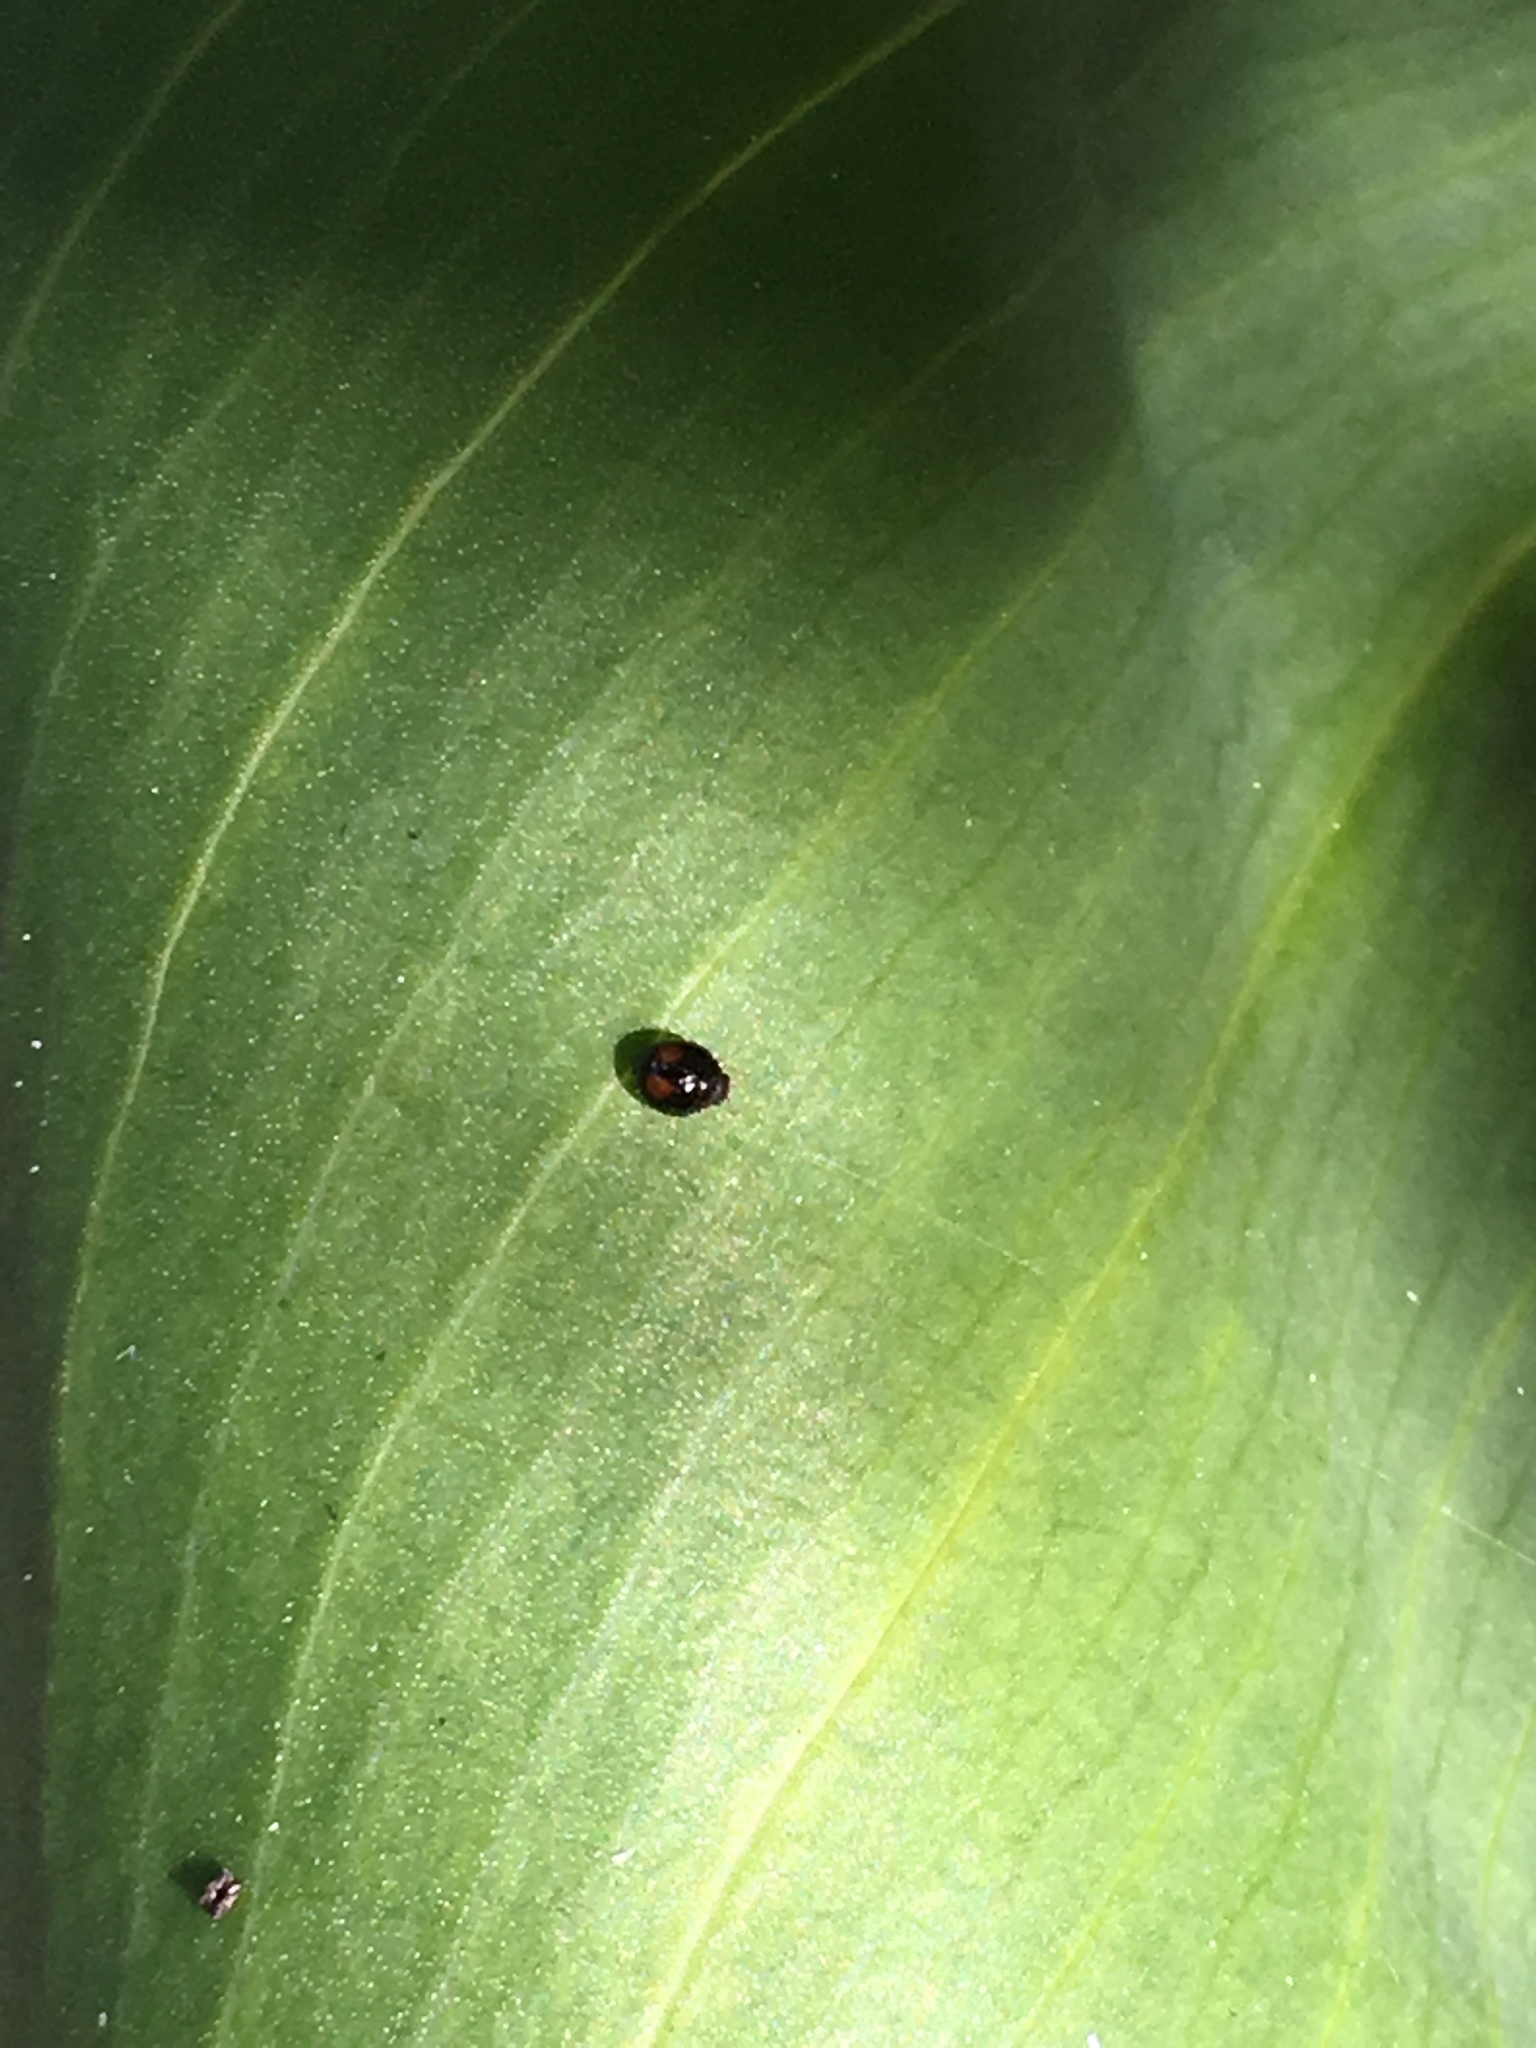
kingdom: Animalia
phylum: Arthropoda
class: Insecta
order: Coleoptera
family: Coccinellidae
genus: Serangium
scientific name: Serangium maculigerum
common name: Lady beetle
